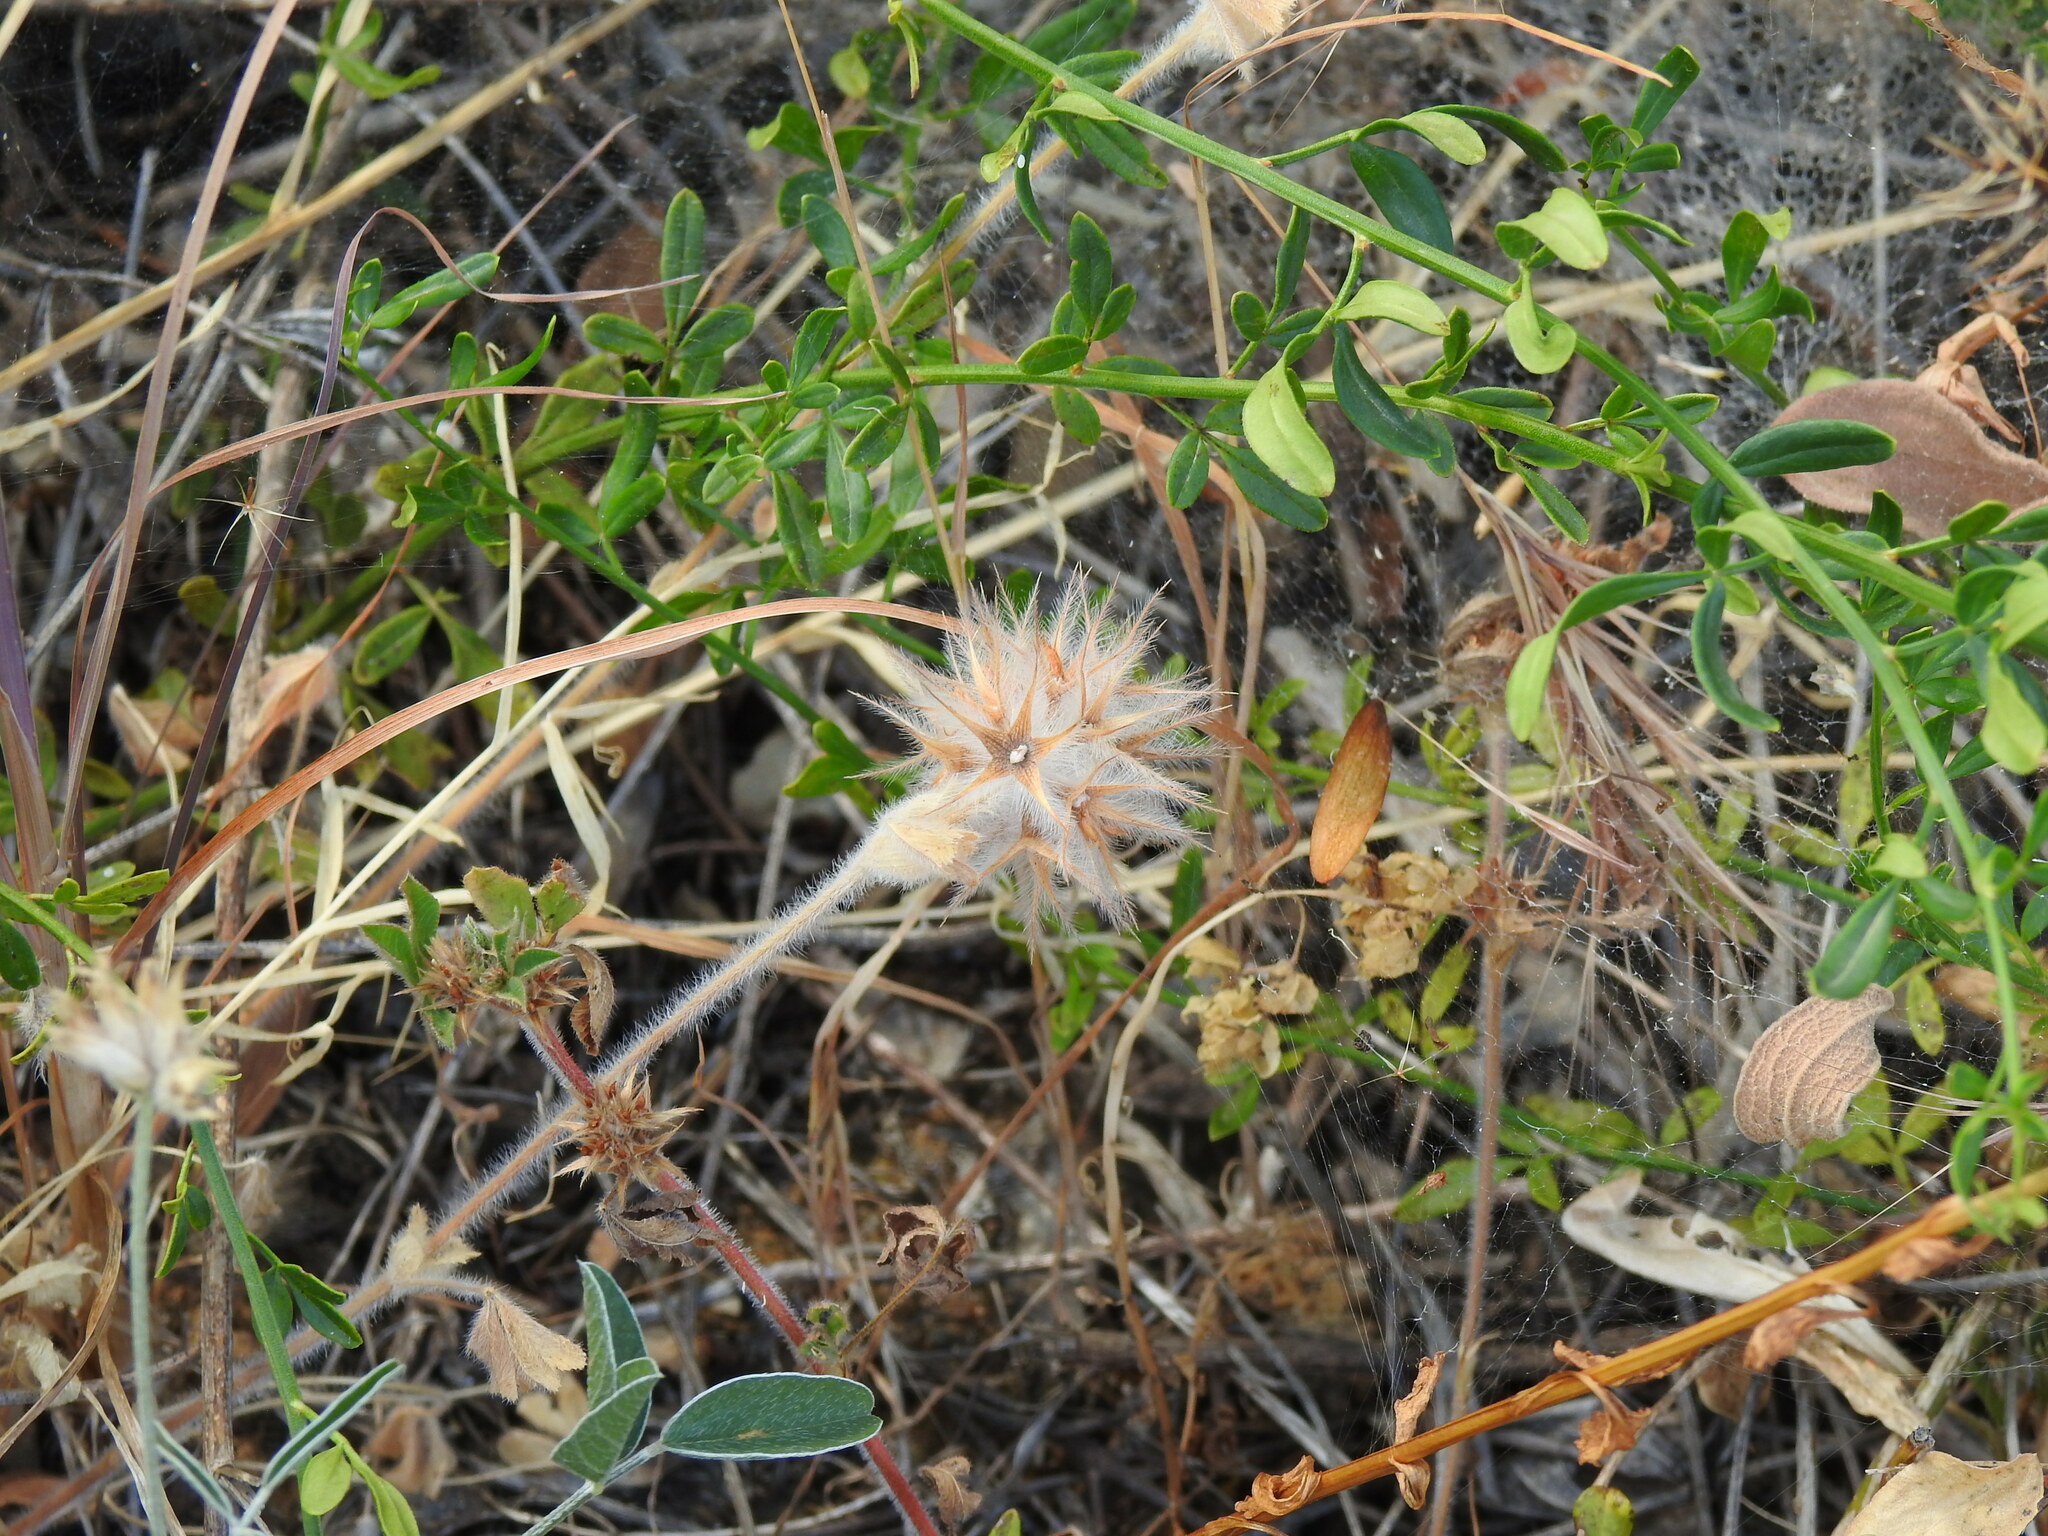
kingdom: Plantae
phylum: Tracheophyta
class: Magnoliopsida
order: Fabales
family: Fabaceae
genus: Trifolium
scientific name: Trifolium stellatum
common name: Starry clover
